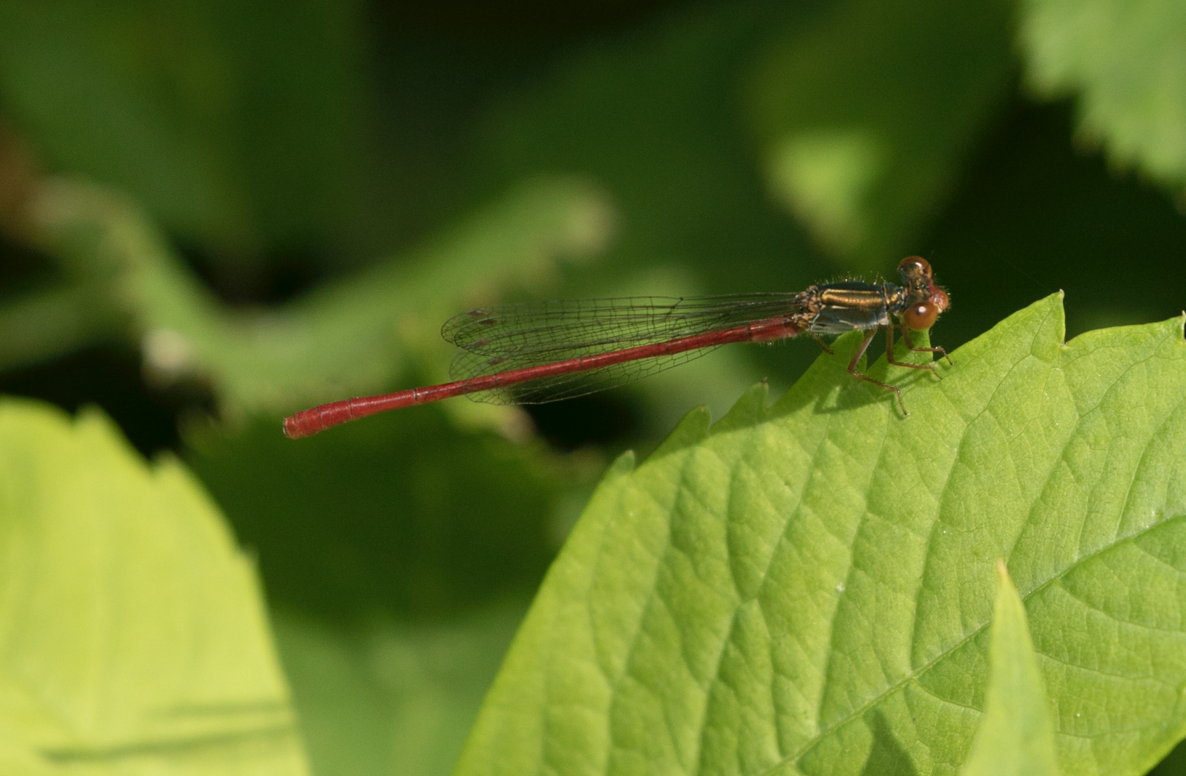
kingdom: Animalia
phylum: Arthropoda
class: Insecta
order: Odonata
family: Coenagrionidae
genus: Ceriagrion
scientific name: Ceriagrion tenellum
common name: Small red damselfly
